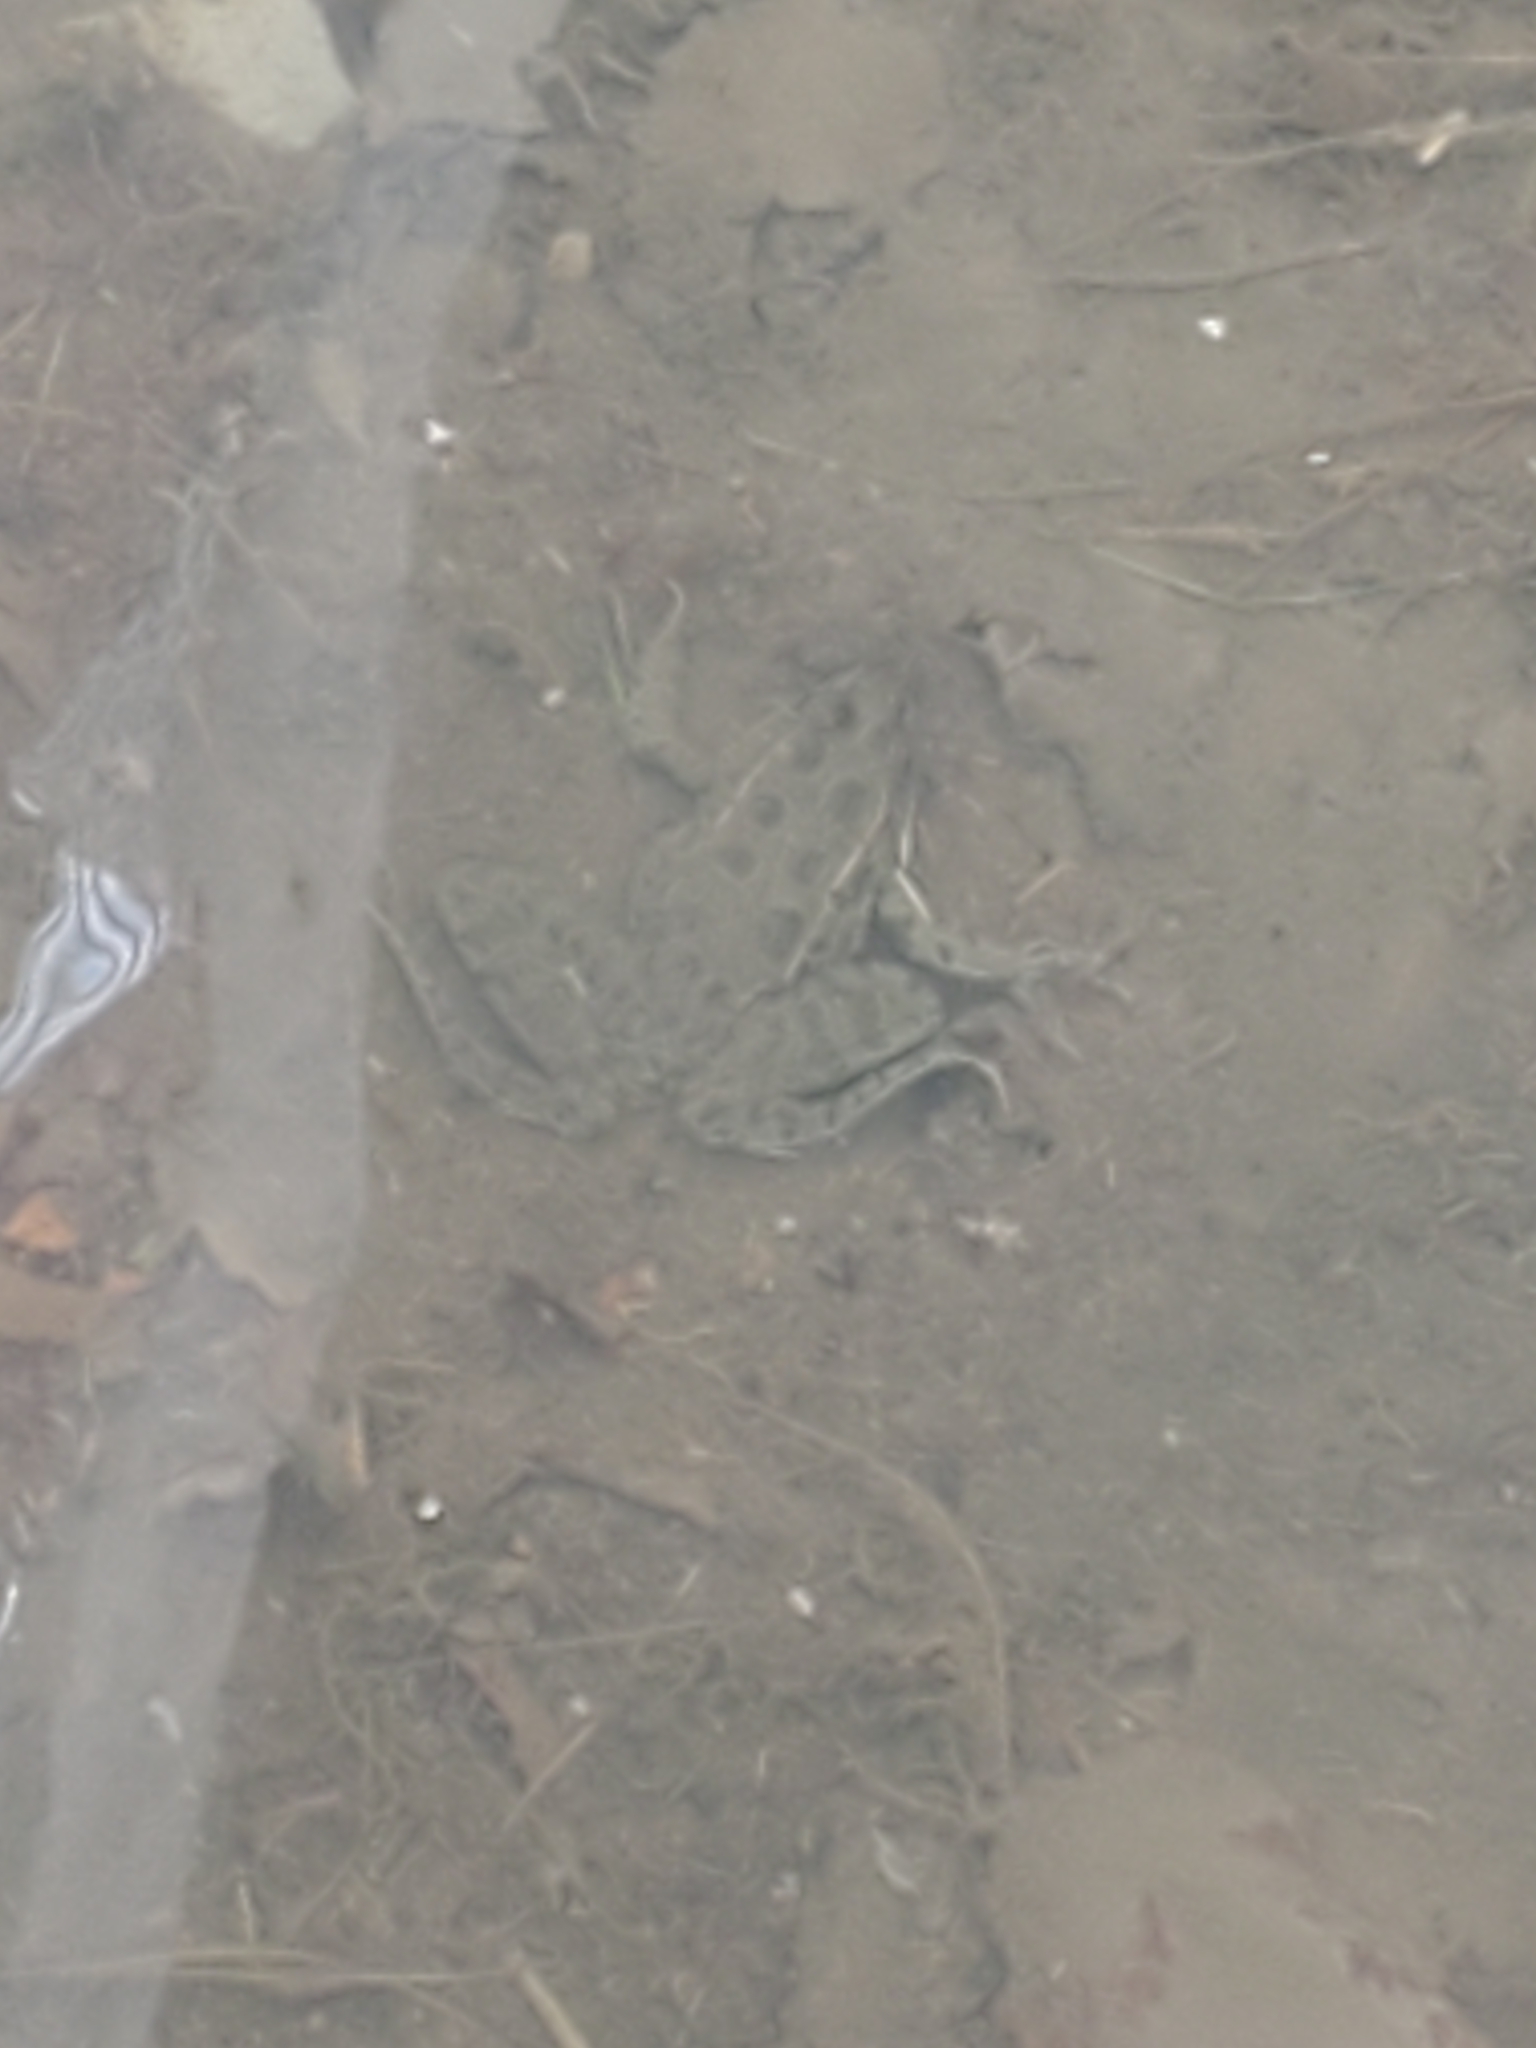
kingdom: Animalia
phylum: Chordata
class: Amphibia
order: Anura
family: Ranidae
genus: Lithobates
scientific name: Lithobates blairi
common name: Plains leopard frog
